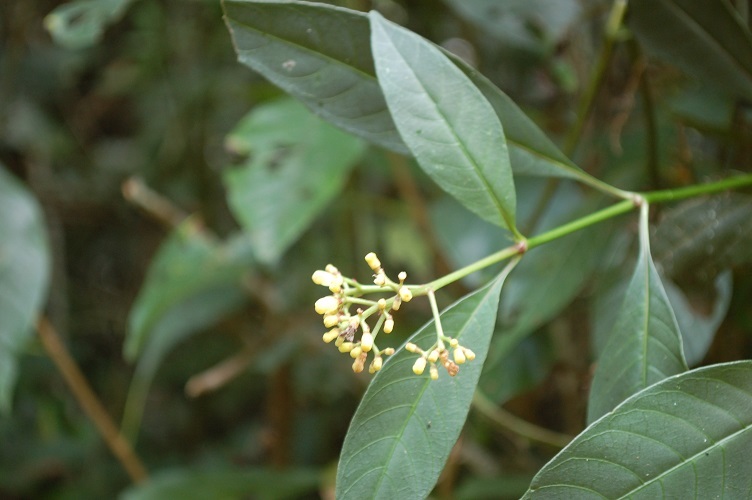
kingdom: Plantae
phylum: Tracheophyta
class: Magnoliopsida
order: Gentianales
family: Rubiaceae
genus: Palicourea
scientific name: Palicourea pubescens
